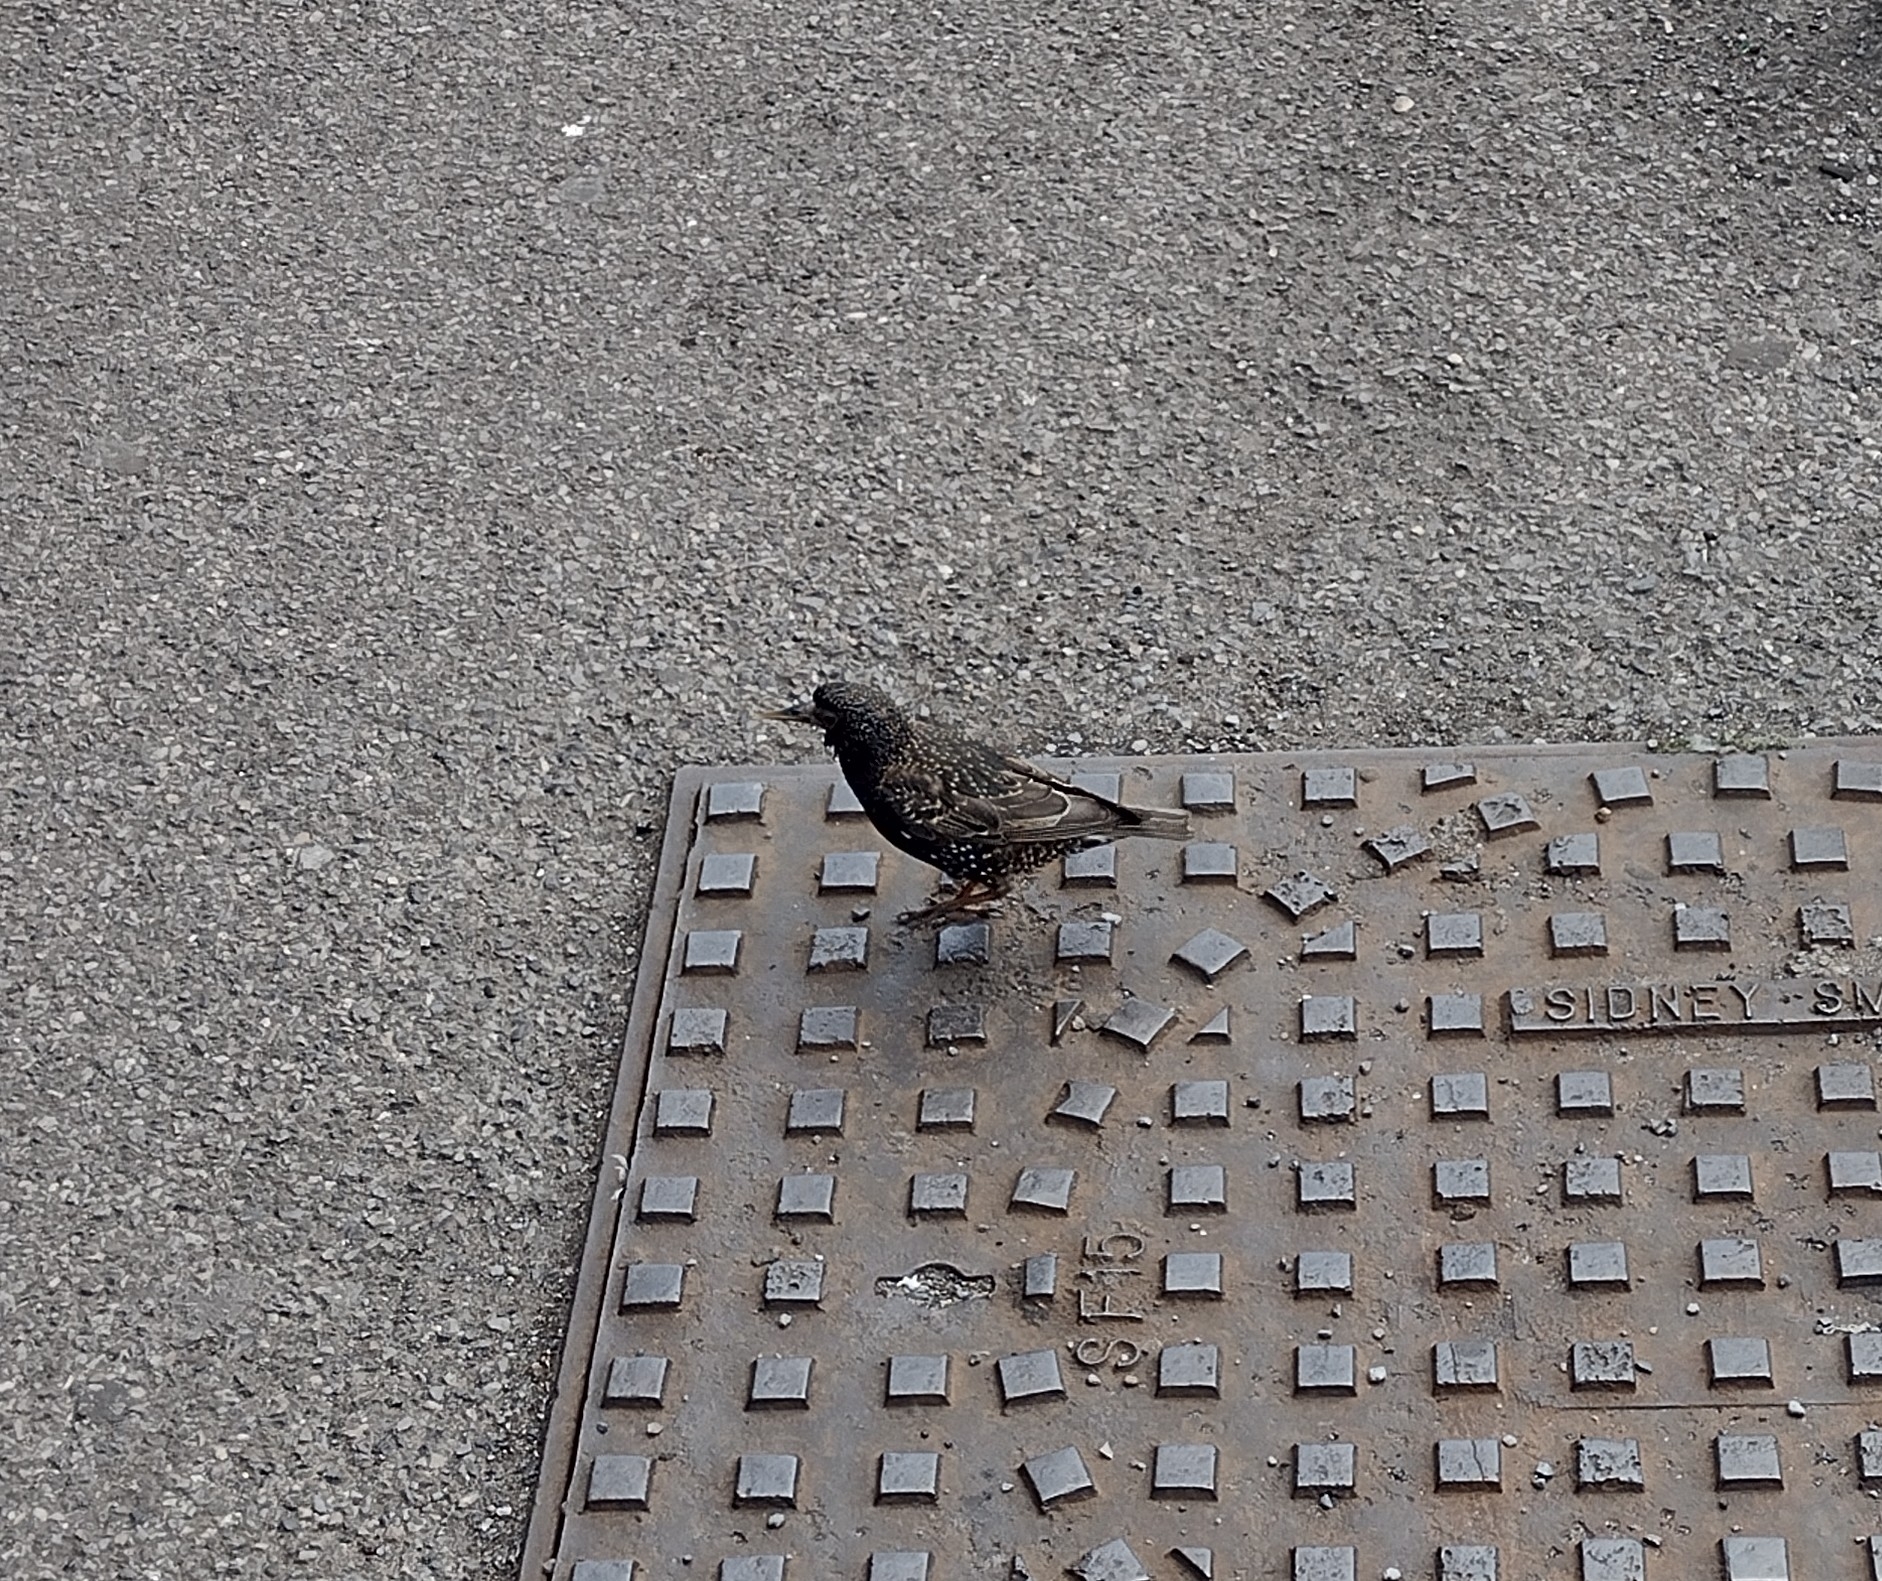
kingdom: Animalia
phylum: Chordata
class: Aves
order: Passeriformes
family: Sturnidae
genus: Sturnus
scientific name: Sturnus vulgaris
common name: Common starling
